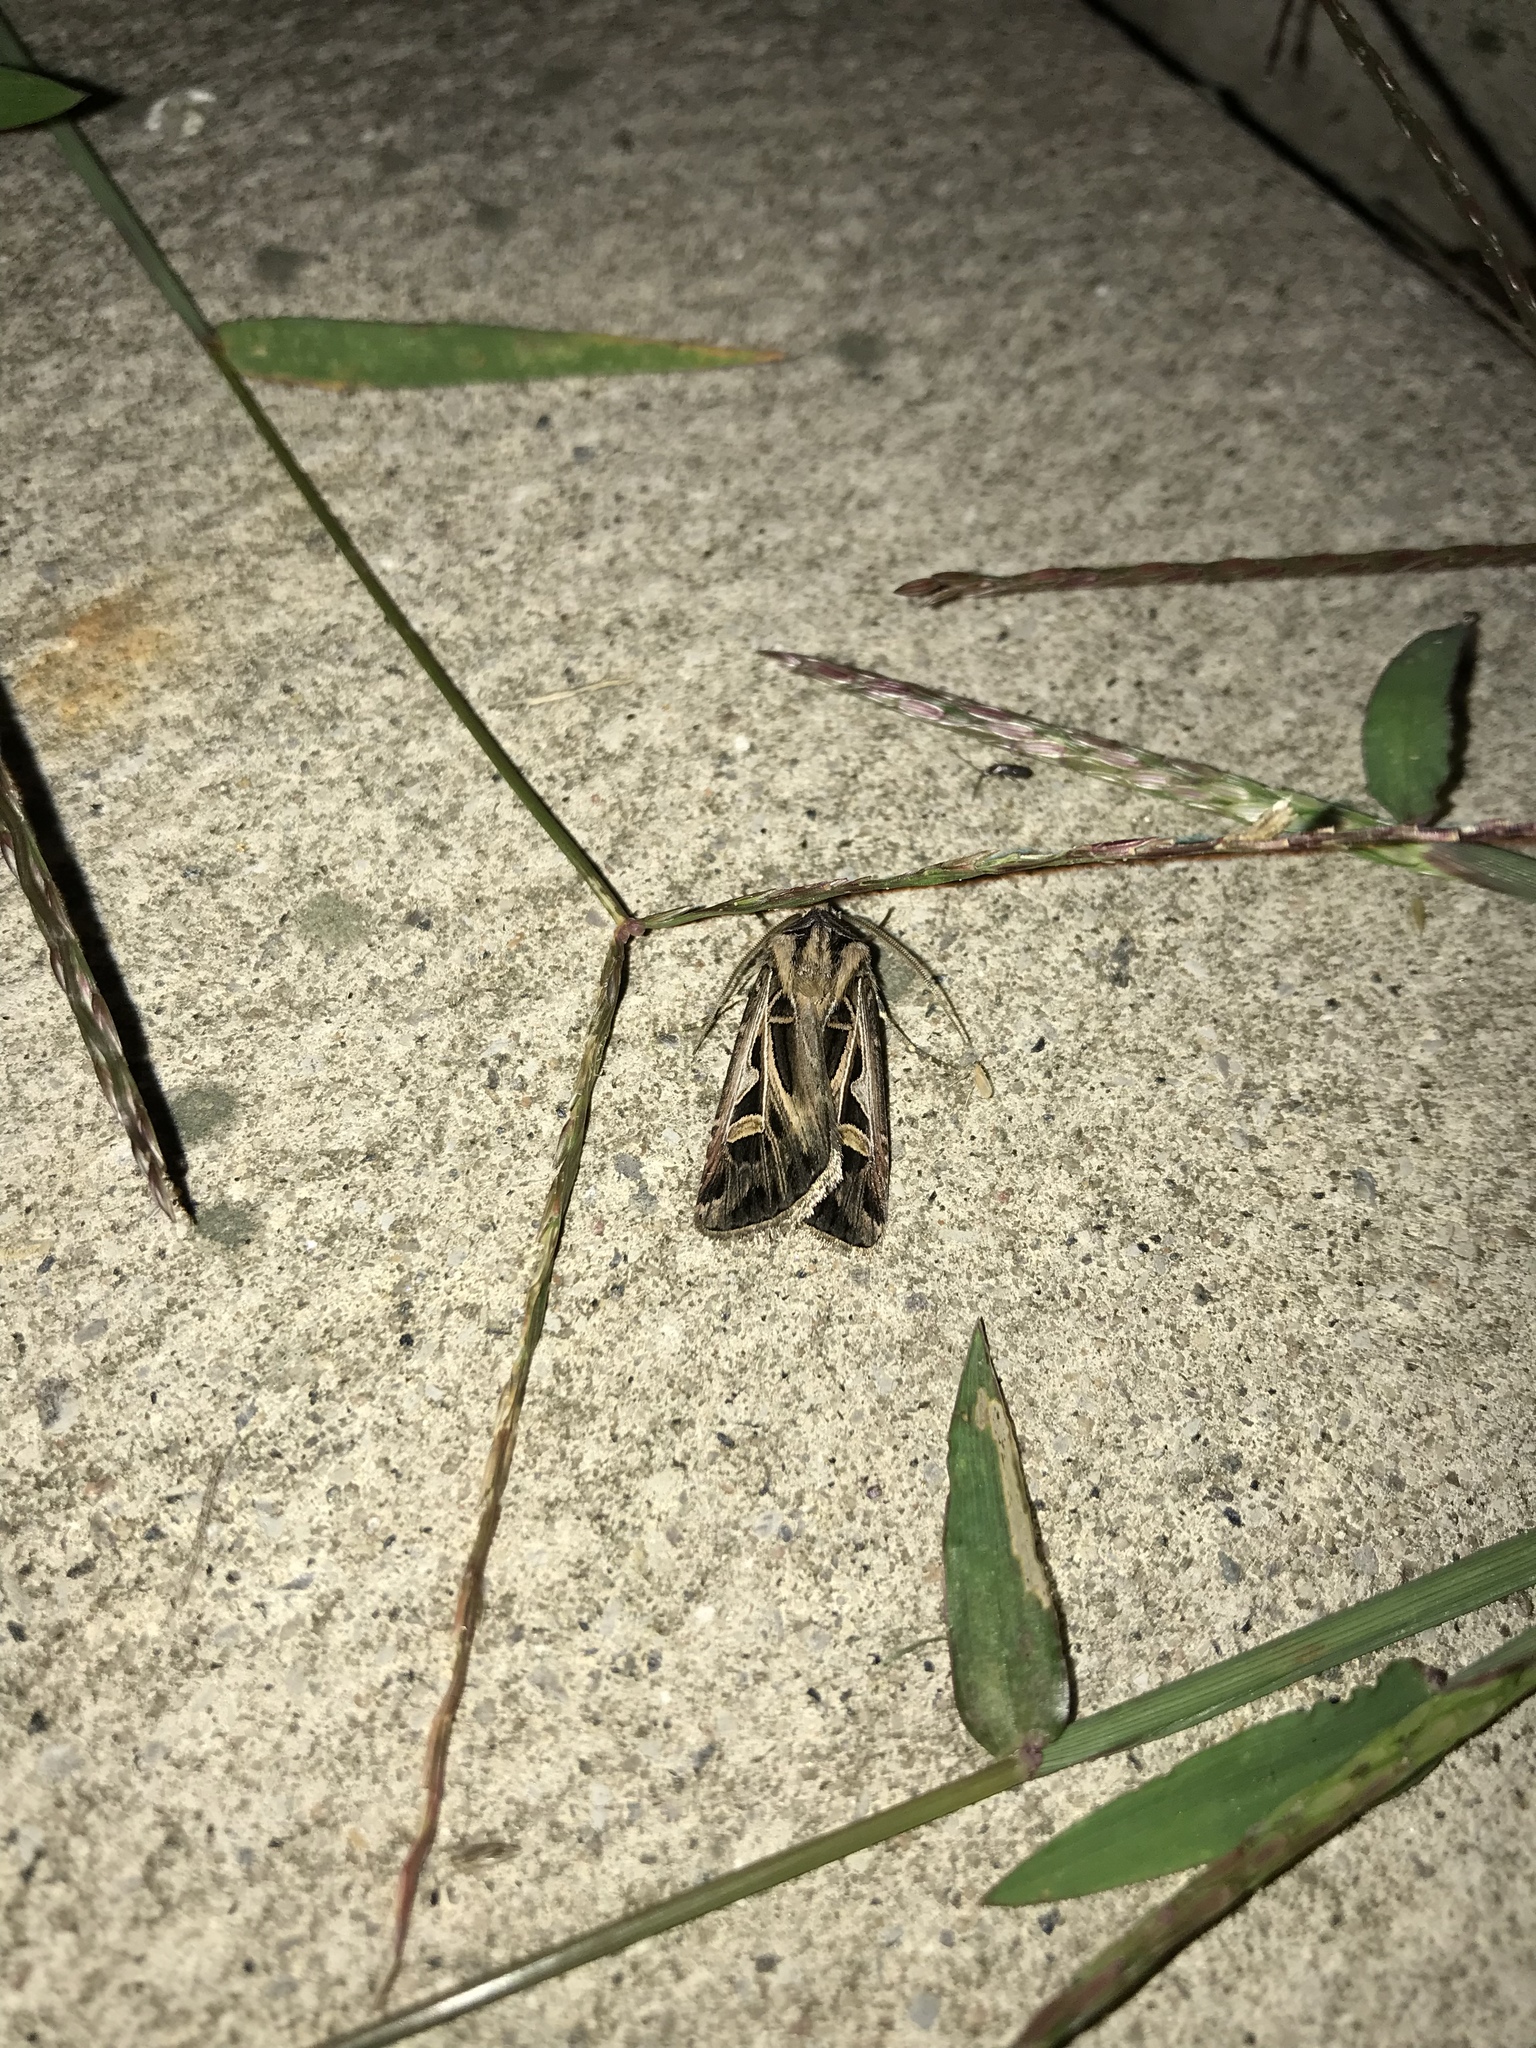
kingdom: Animalia
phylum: Arthropoda
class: Insecta
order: Lepidoptera
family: Noctuidae
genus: Feltia
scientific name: Feltia jaculifera
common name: Dingy cutworm moth
